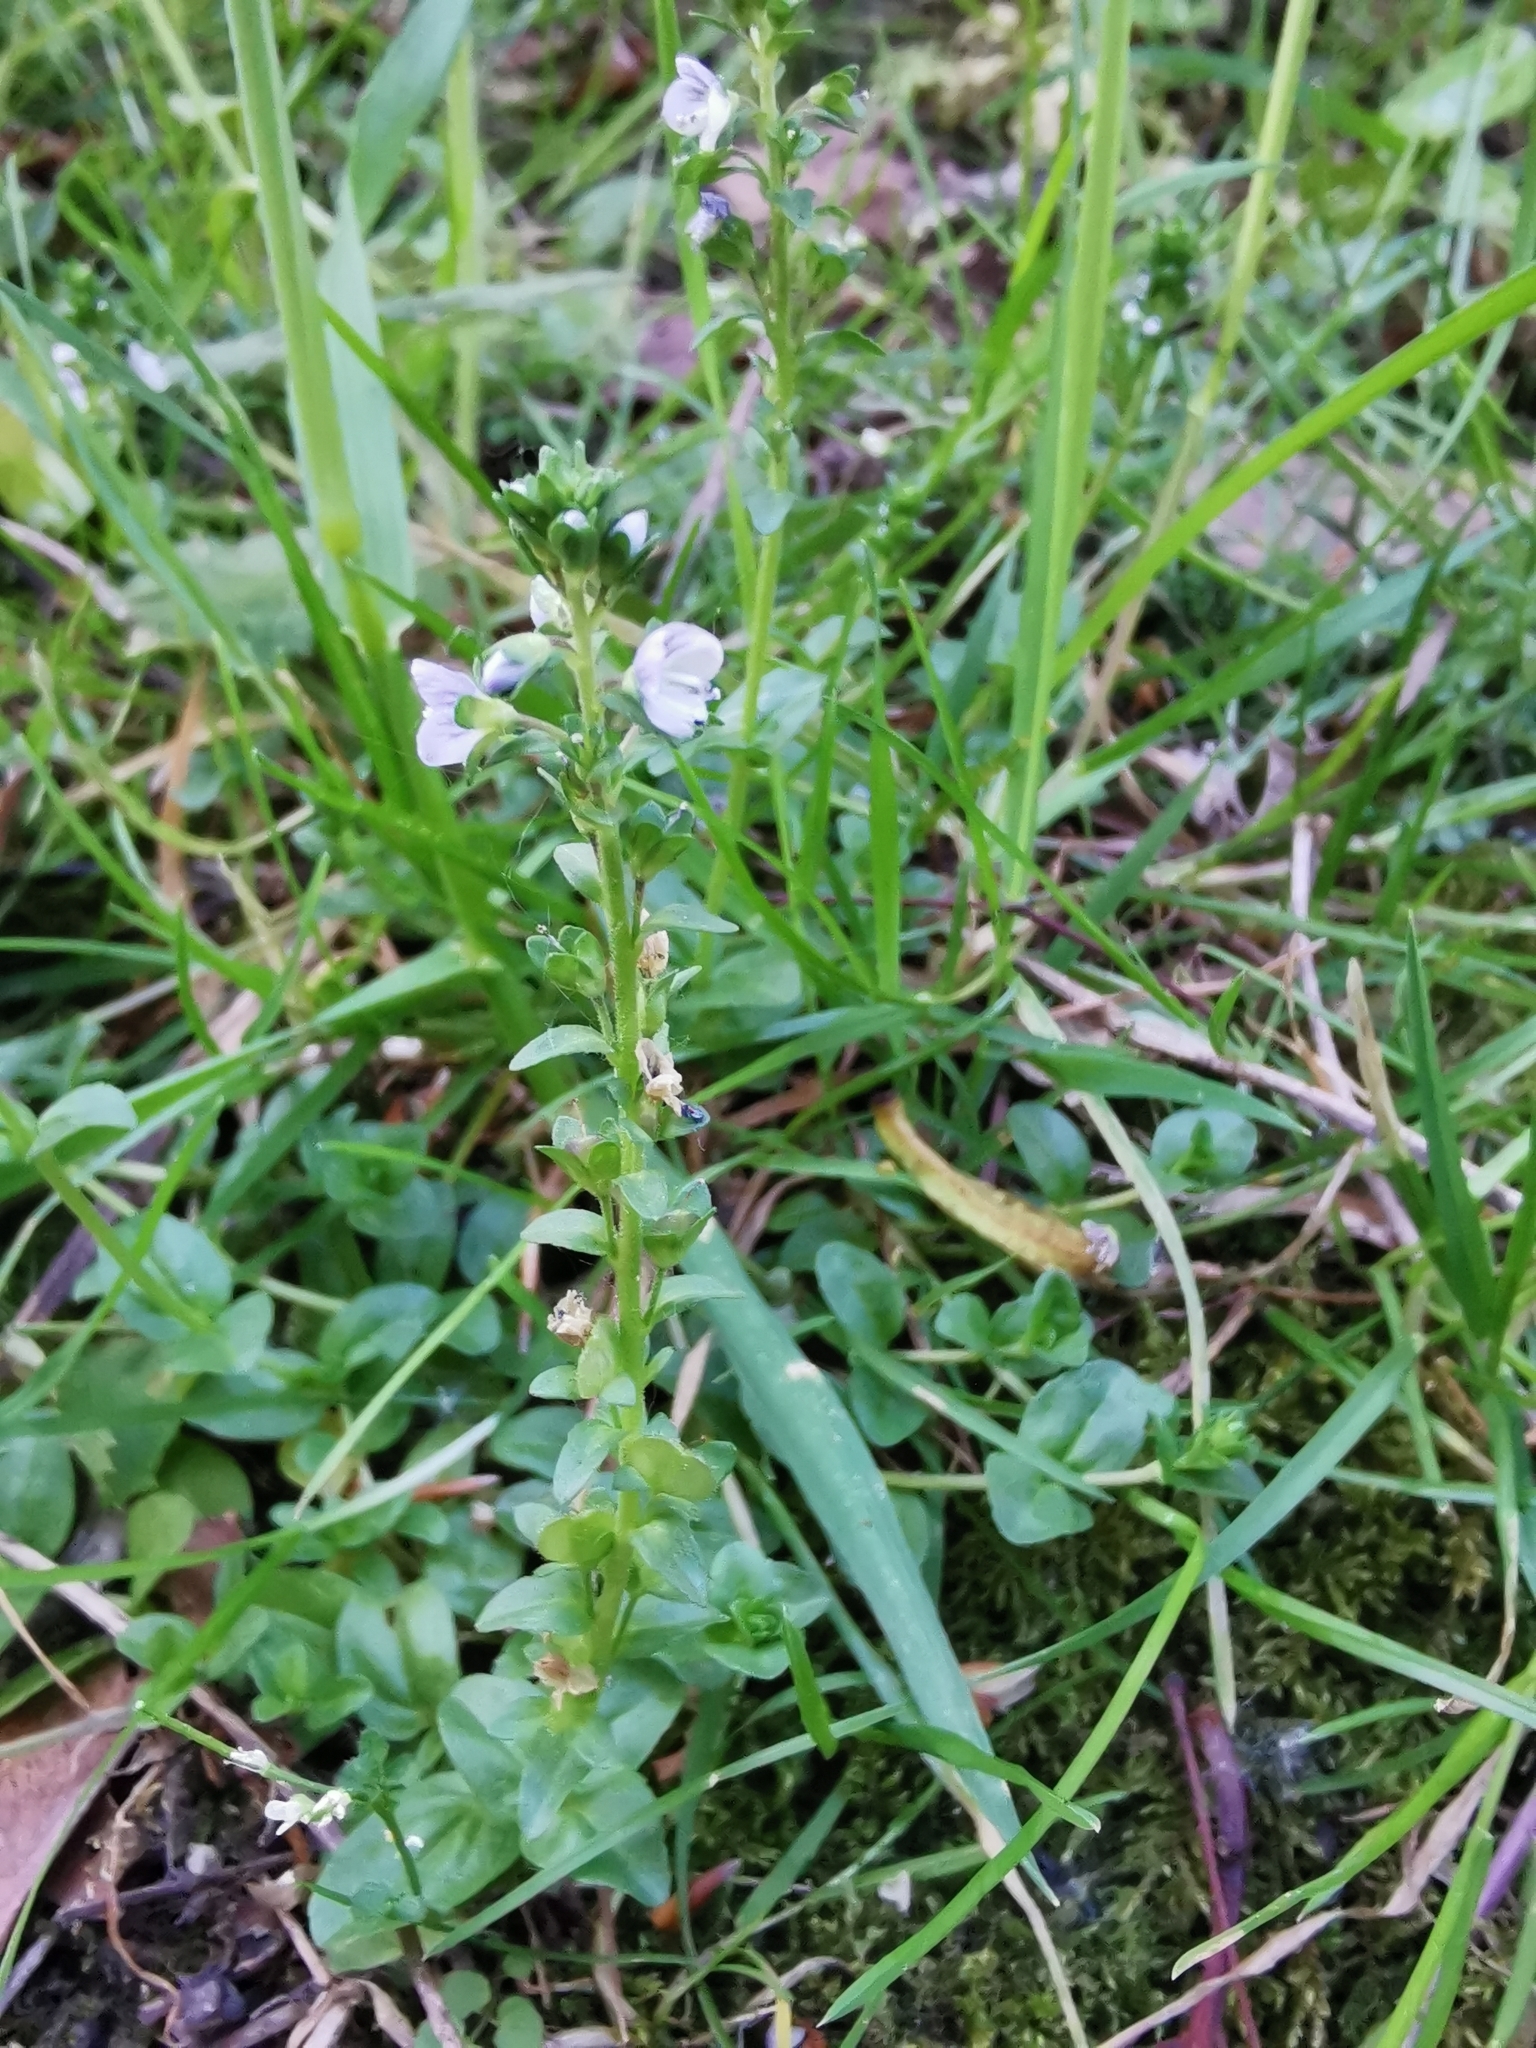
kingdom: Plantae
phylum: Tracheophyta
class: Magnoliopsida
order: Lamiales
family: Plantaginaceae
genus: Veronica
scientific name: Veronica serpyllifolia
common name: Thyme-leaved speedwell
